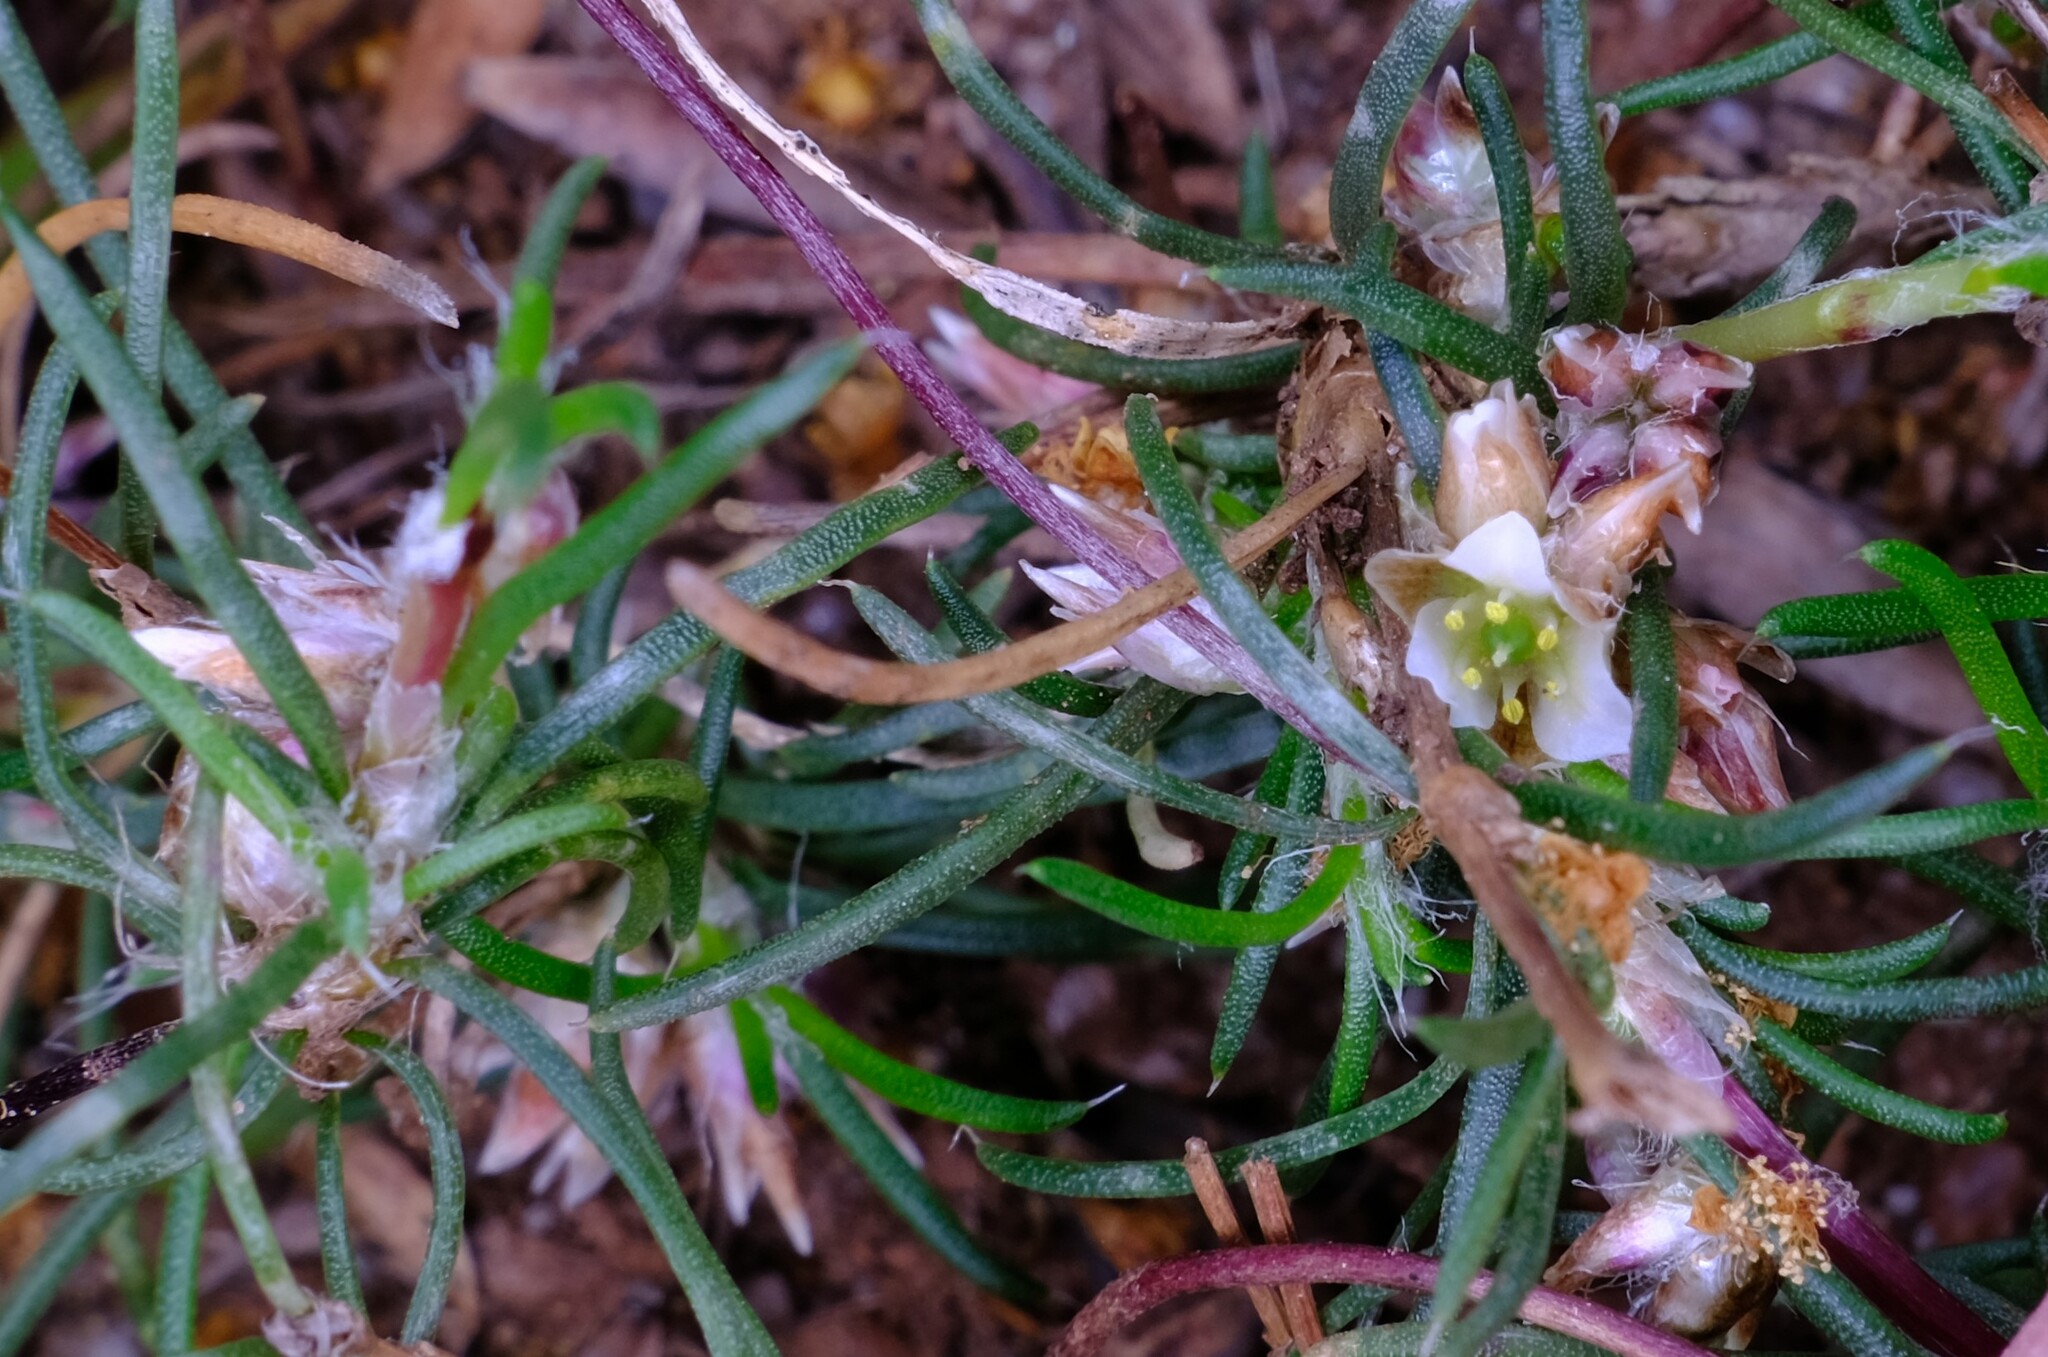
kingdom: Plantae
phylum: Tracheophyta
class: Liliopsida
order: Asparagales
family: Asparagaceae
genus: Laxmannia
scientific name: Laxmannia orientalis
